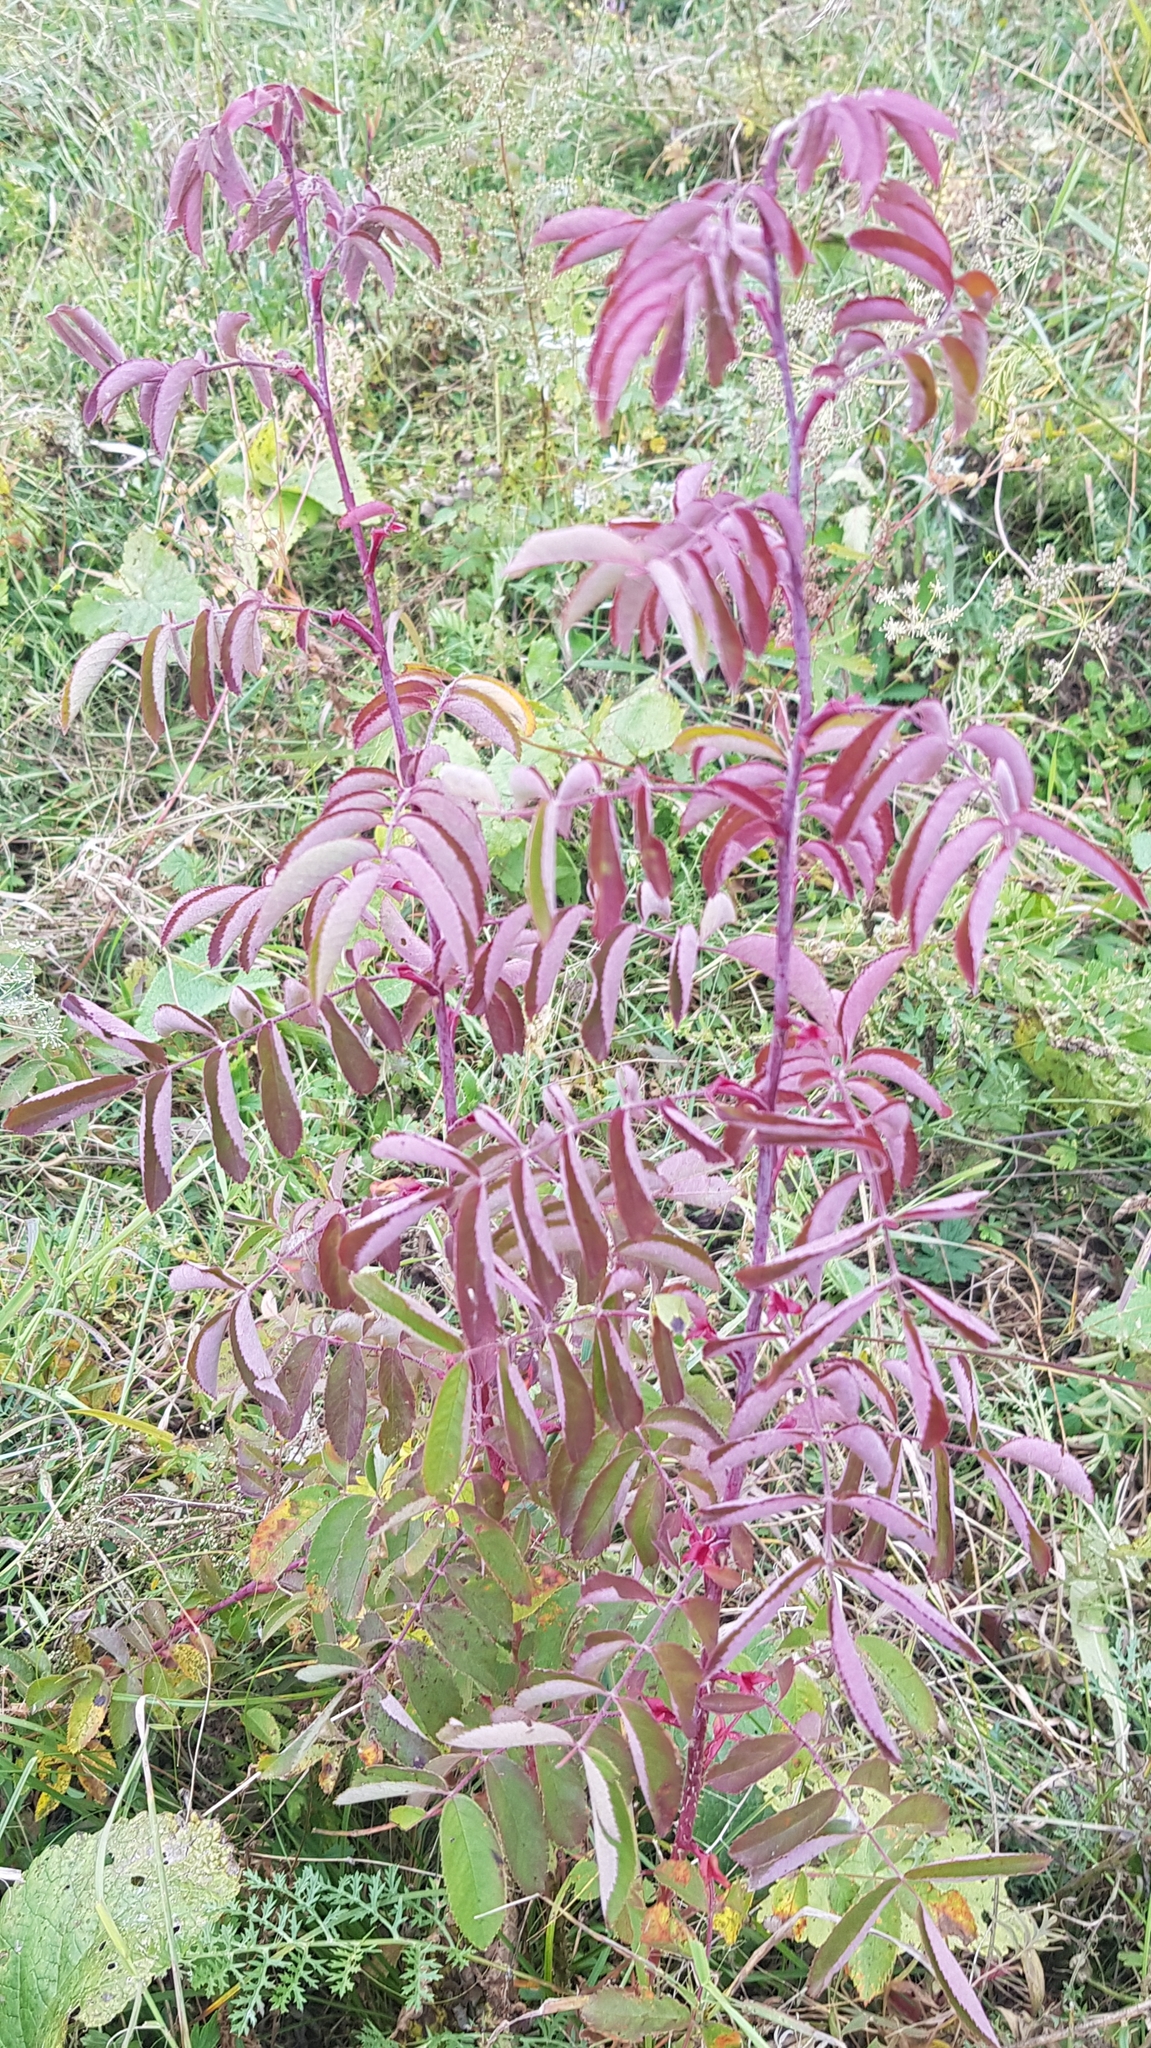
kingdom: Plantae
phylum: Tracheophyta
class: Magnoliopsida
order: Rosales
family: Rosaceae
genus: Rosa
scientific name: Rosa davurica
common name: Amur rose
